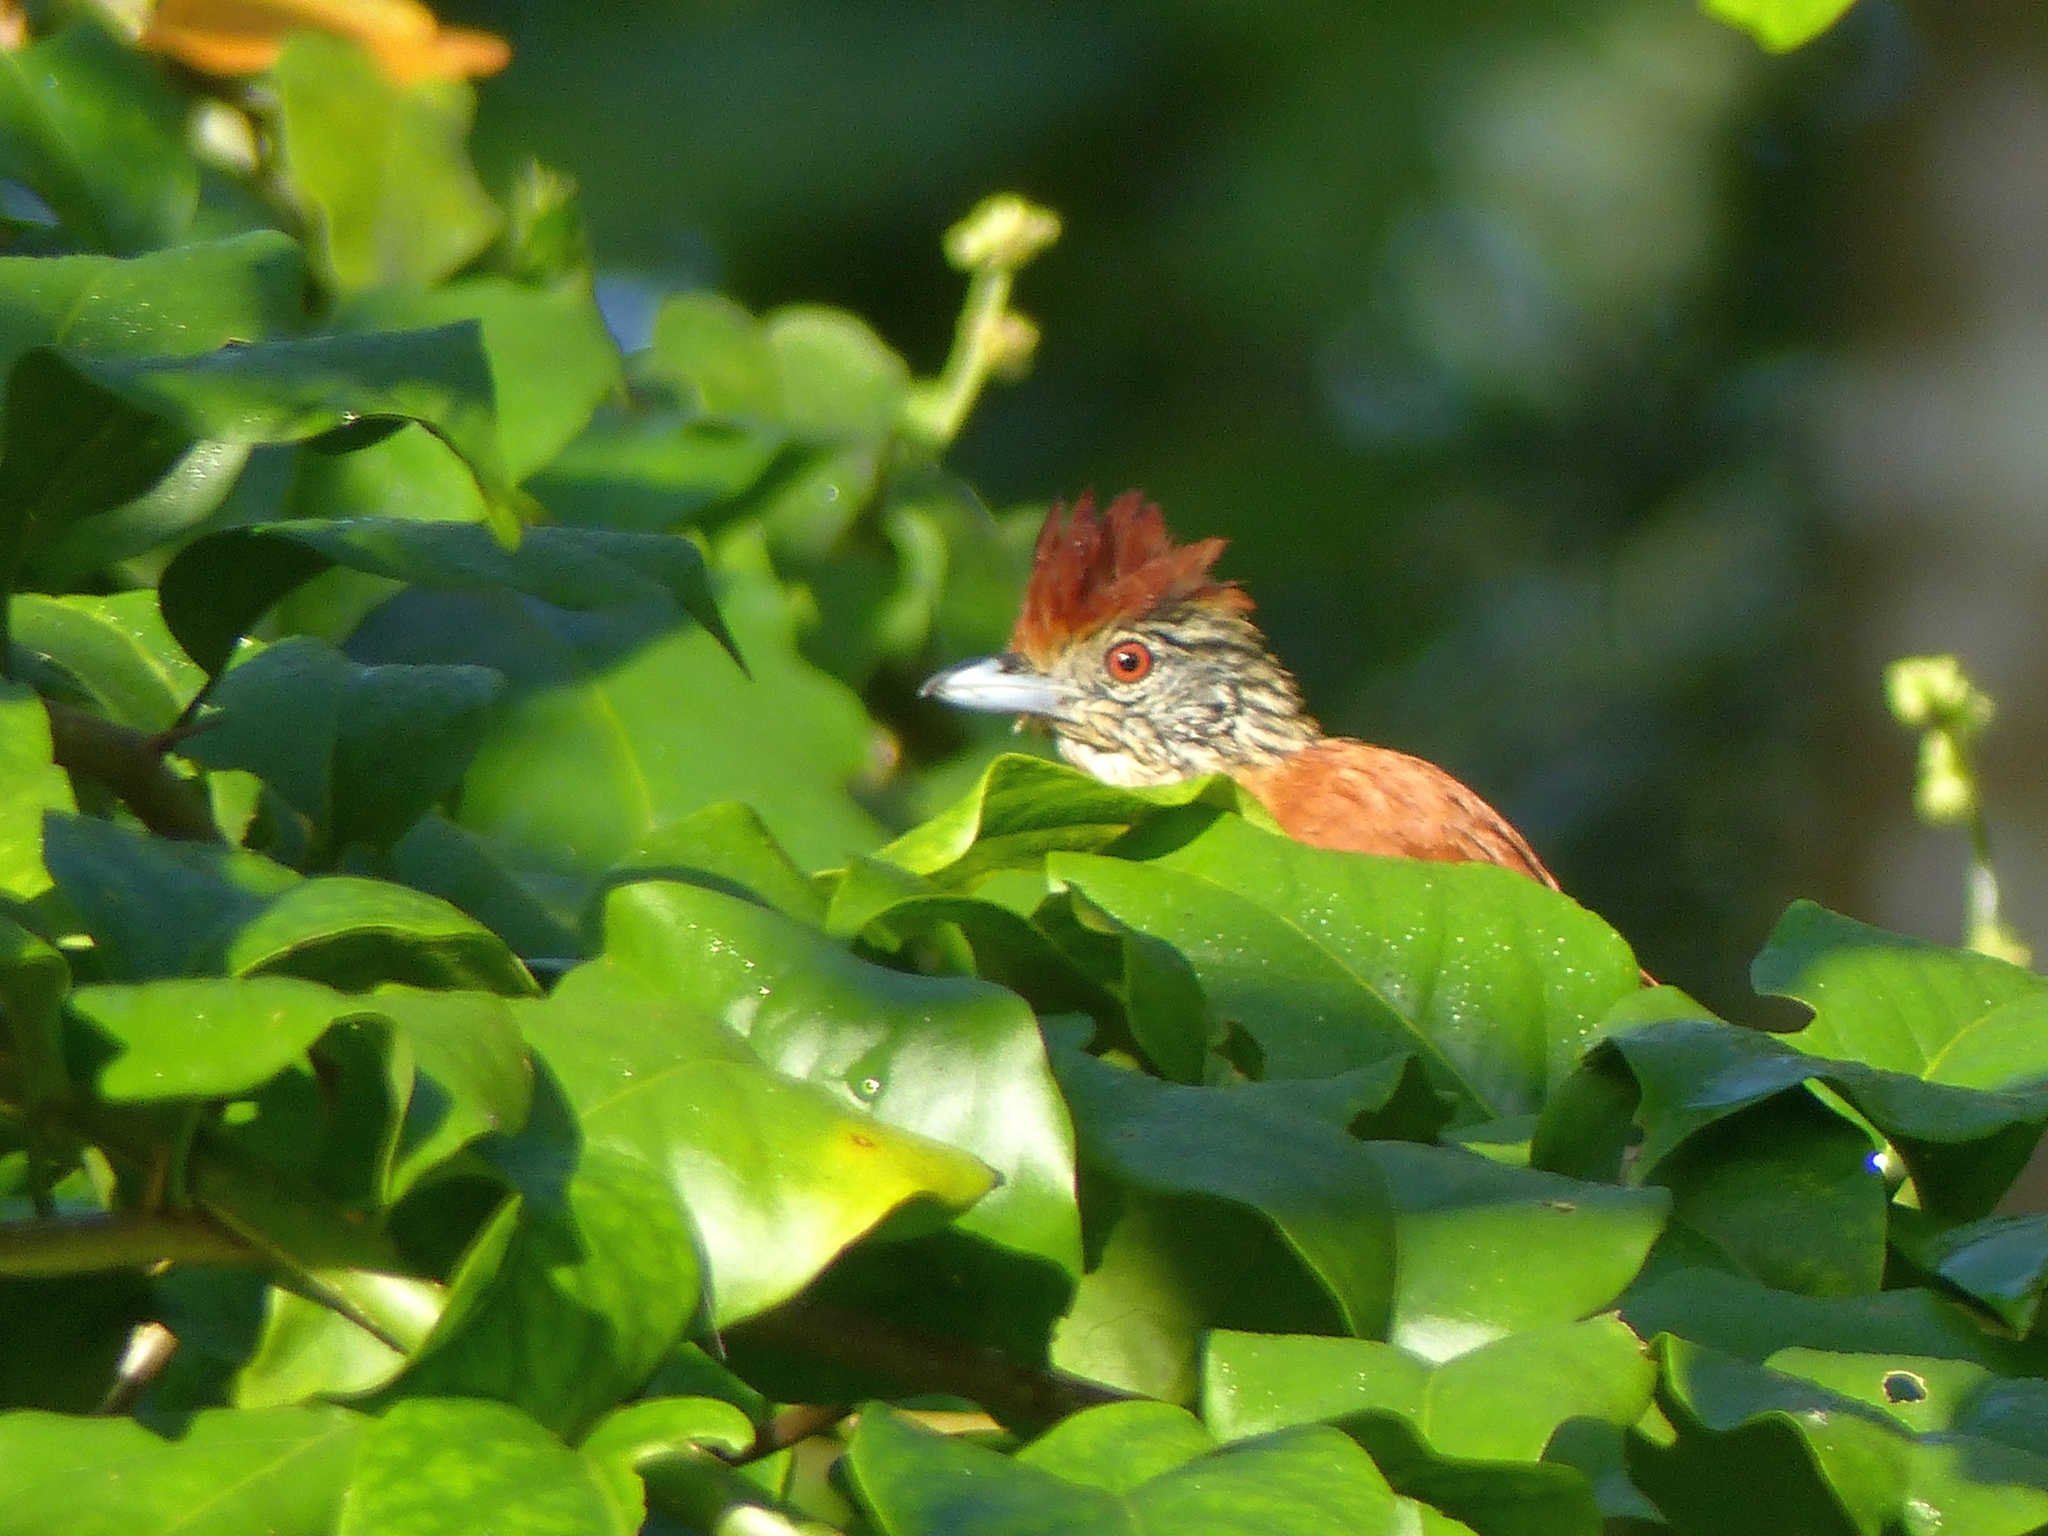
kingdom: Animalia
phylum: Chordata
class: Aves
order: Passeriformes
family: Thamnophilidae
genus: Thamnophilus
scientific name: Thamnophilus doliatus
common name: Barred antshrike
